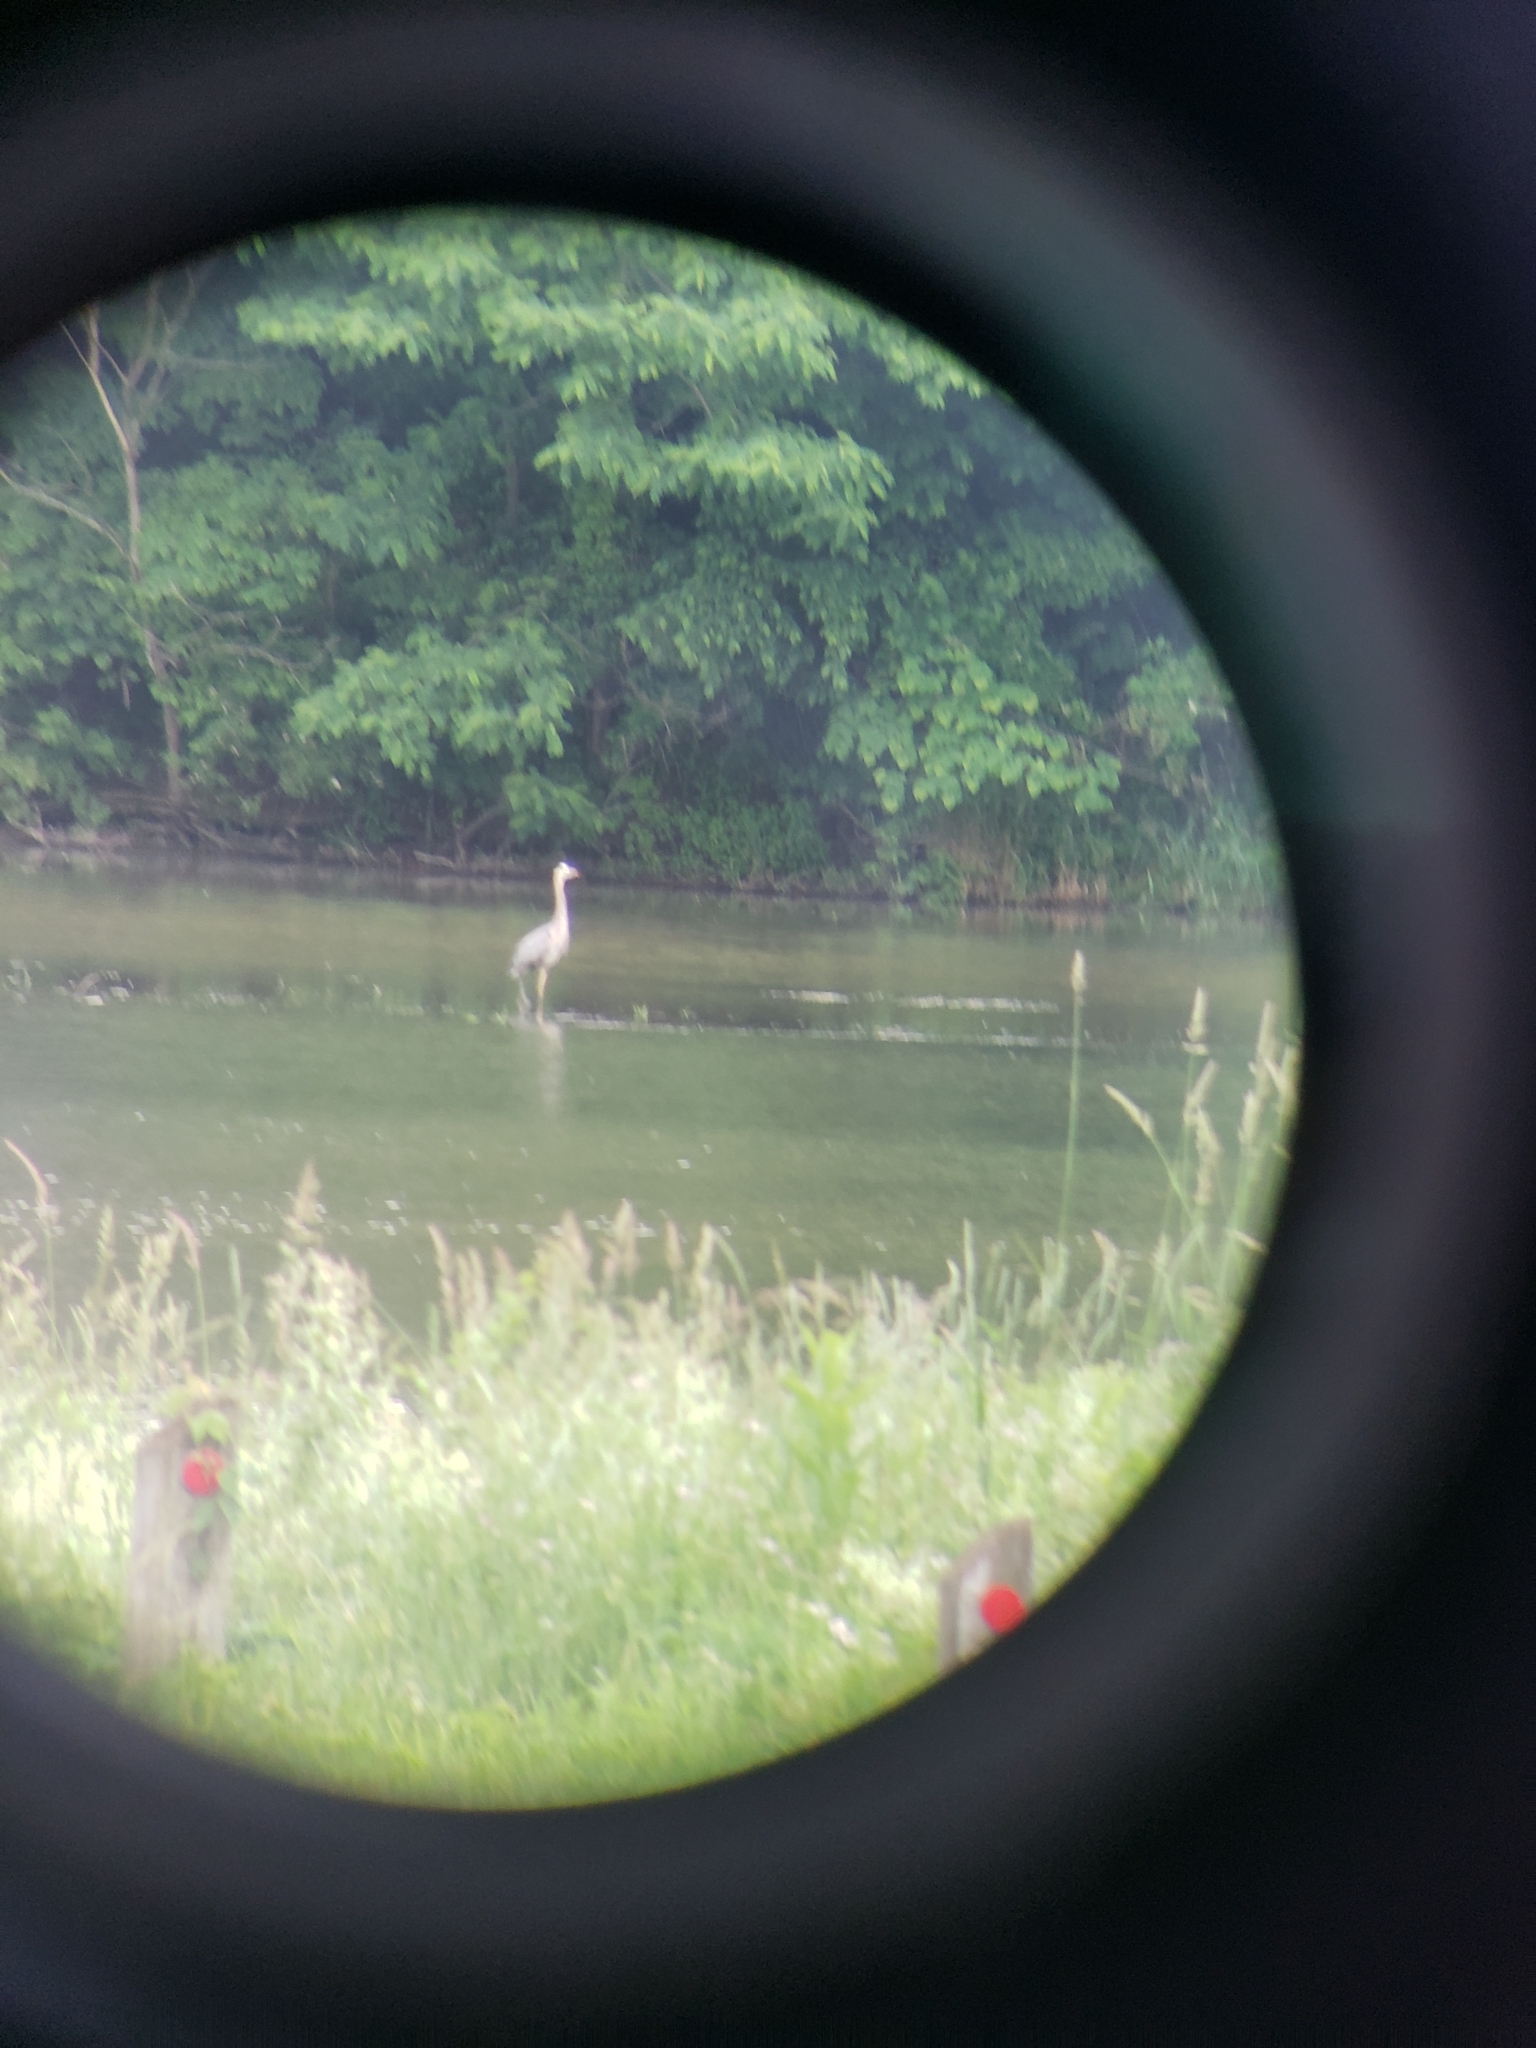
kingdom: Animalia
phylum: Chordata
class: Aves
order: Pelecaniformes
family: Ardeidae
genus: Ardea
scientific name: Ardea herodias
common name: Great blue heron
